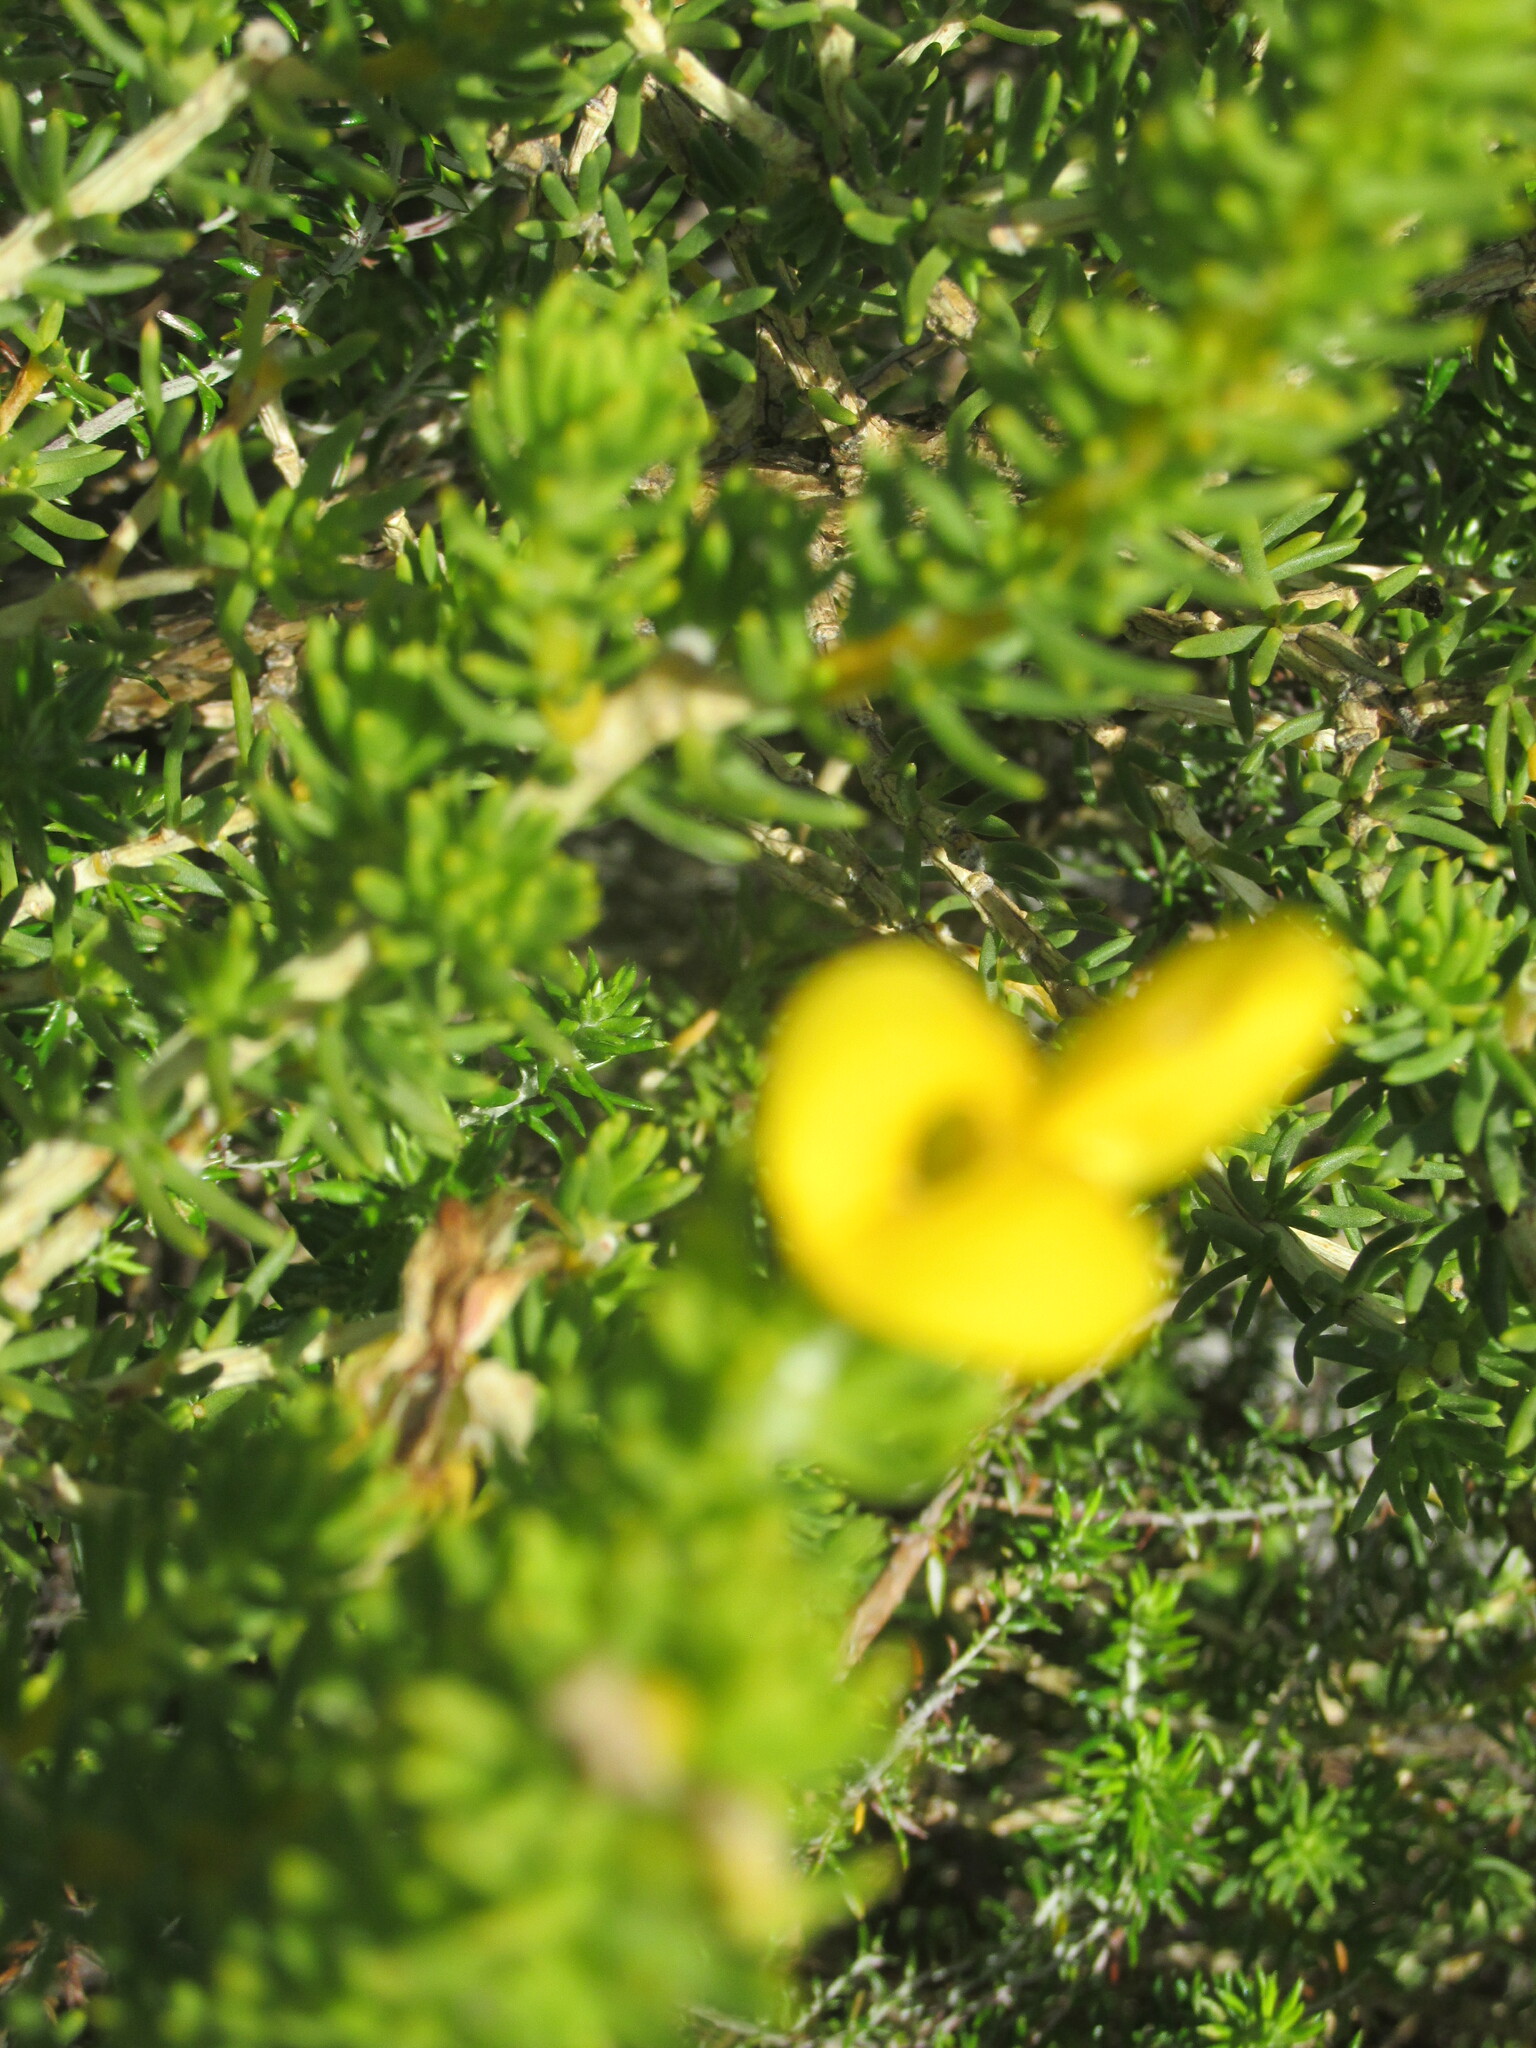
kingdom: Plantae
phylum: Tracheophyta
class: Magnoliopsida
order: Fabales
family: Fabaceae
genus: Aspalathus
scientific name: Aspalathus capensis
